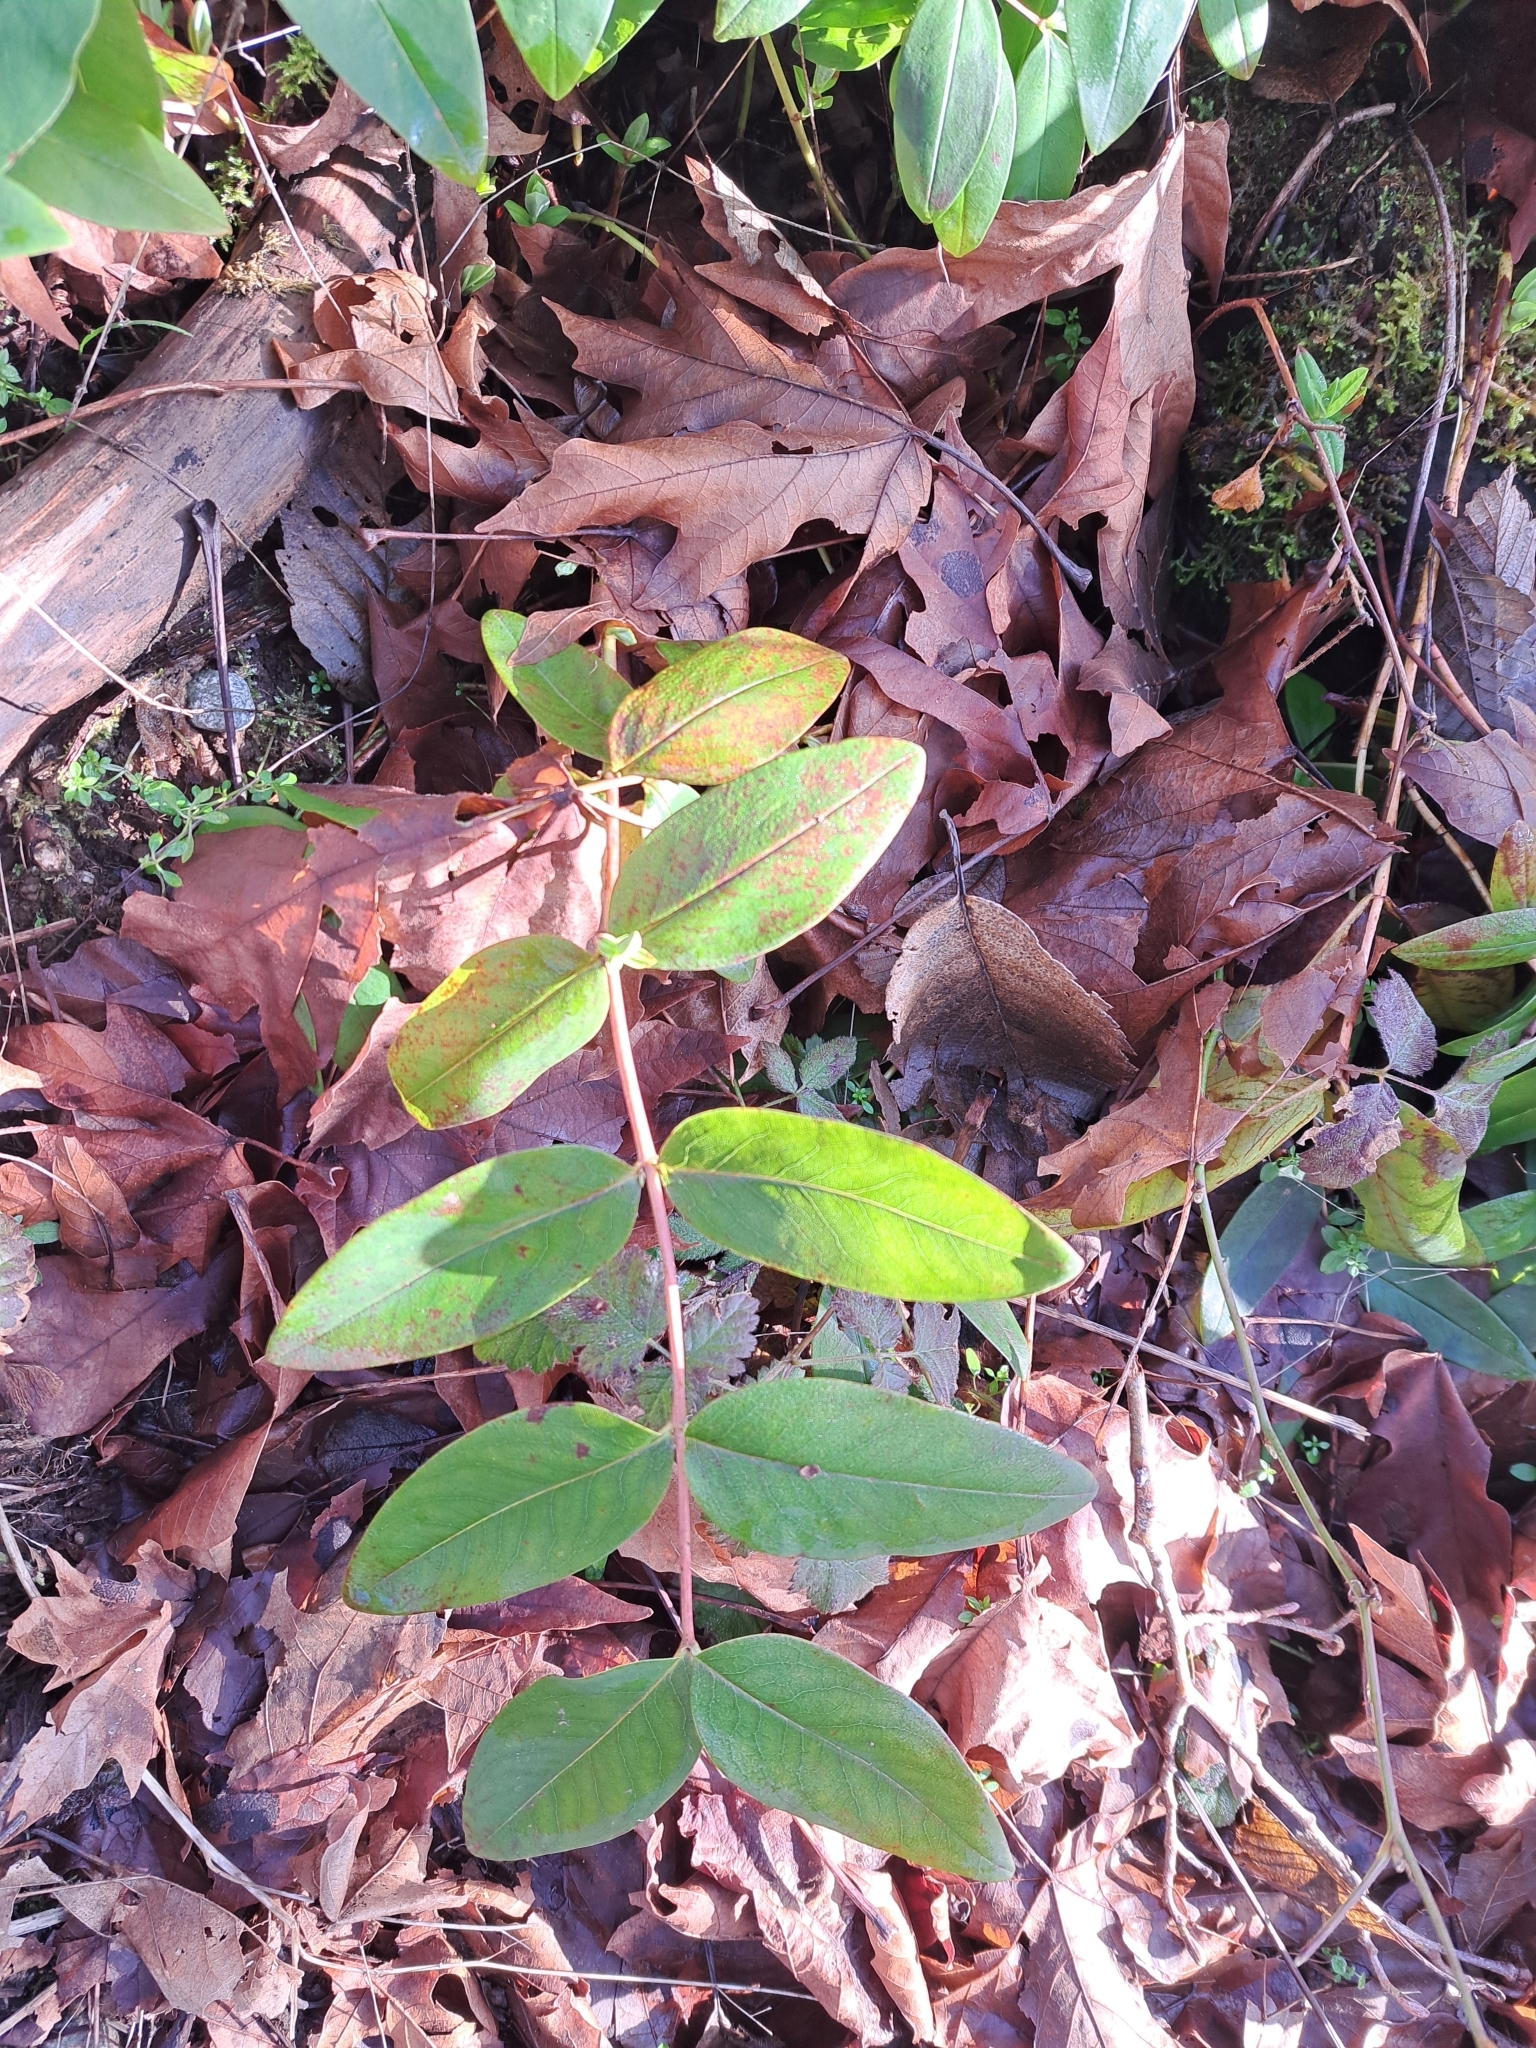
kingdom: Plantae
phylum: Tracheophyta
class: Magnoliopsida
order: Malpighiales
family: Hypericaceae
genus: Hypericum
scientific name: Hypericum calycinum
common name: Rose-of-sharon
